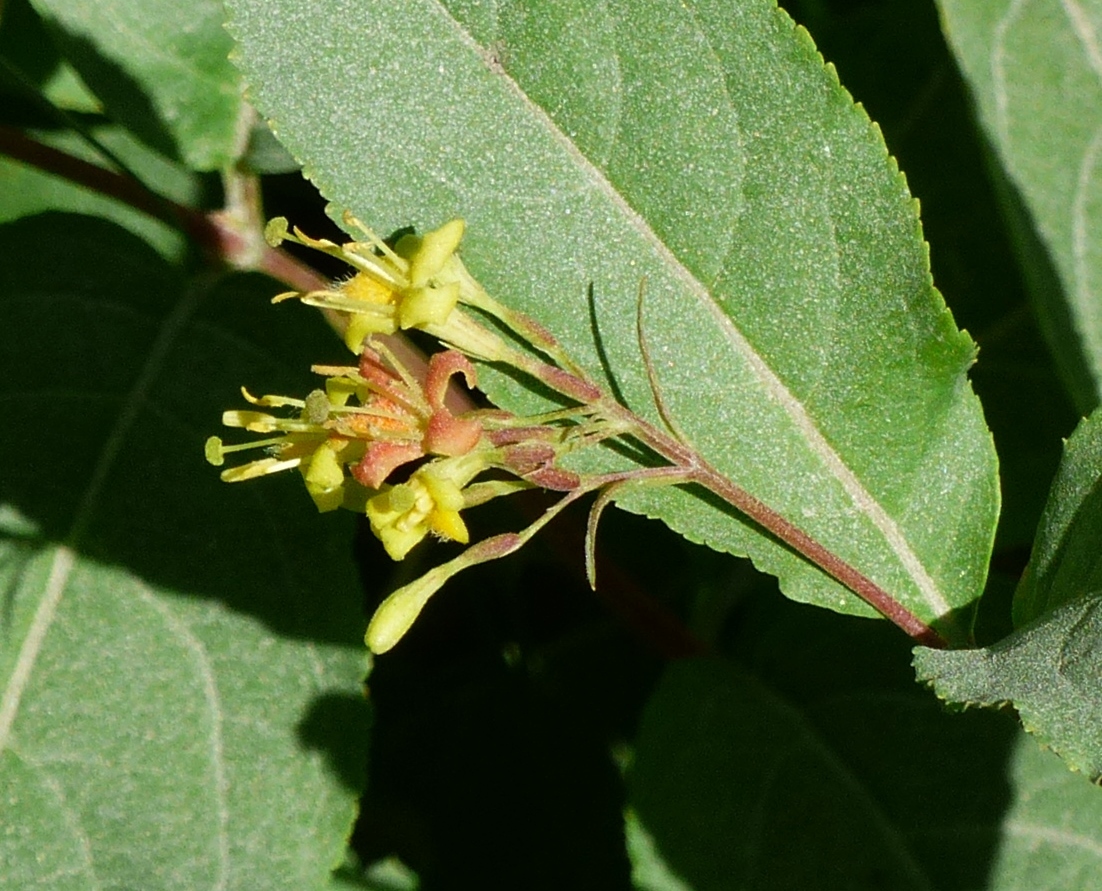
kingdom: Plantae
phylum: Tracheophyta
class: Magnoliopsida
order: Dipsacales
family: Caprifoliaceae
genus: Diervilla
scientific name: Diervilla lonicera
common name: Bush-honeysuckle
